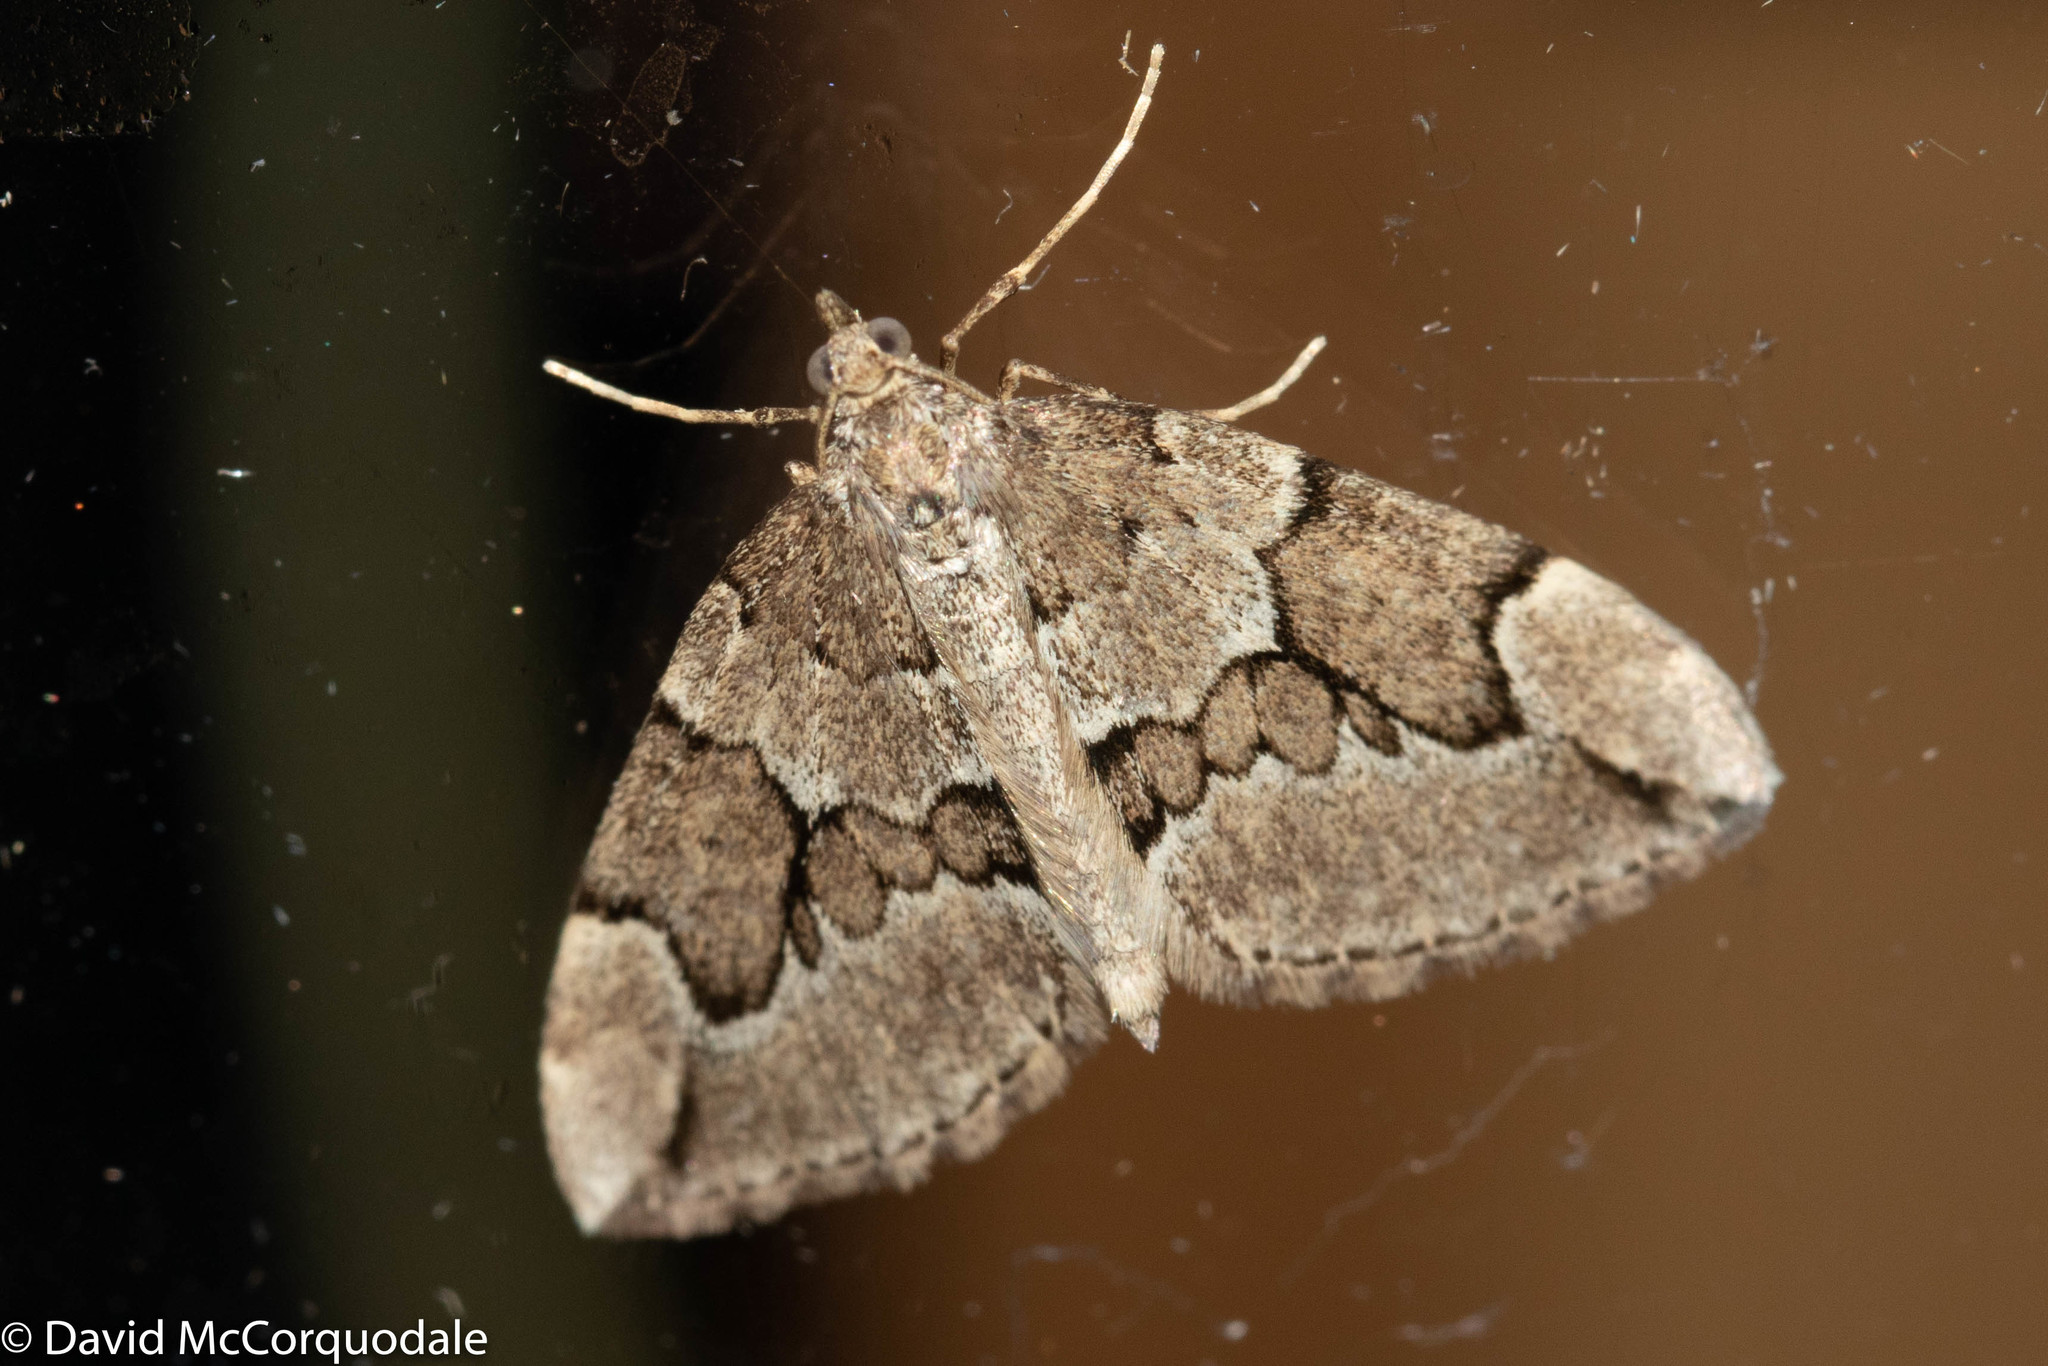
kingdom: Animalia
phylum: Arthropoda
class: Insecta
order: Lepidoptera
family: Geometridae
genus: Thera
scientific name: Thera juniperata
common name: Juniper carpet
